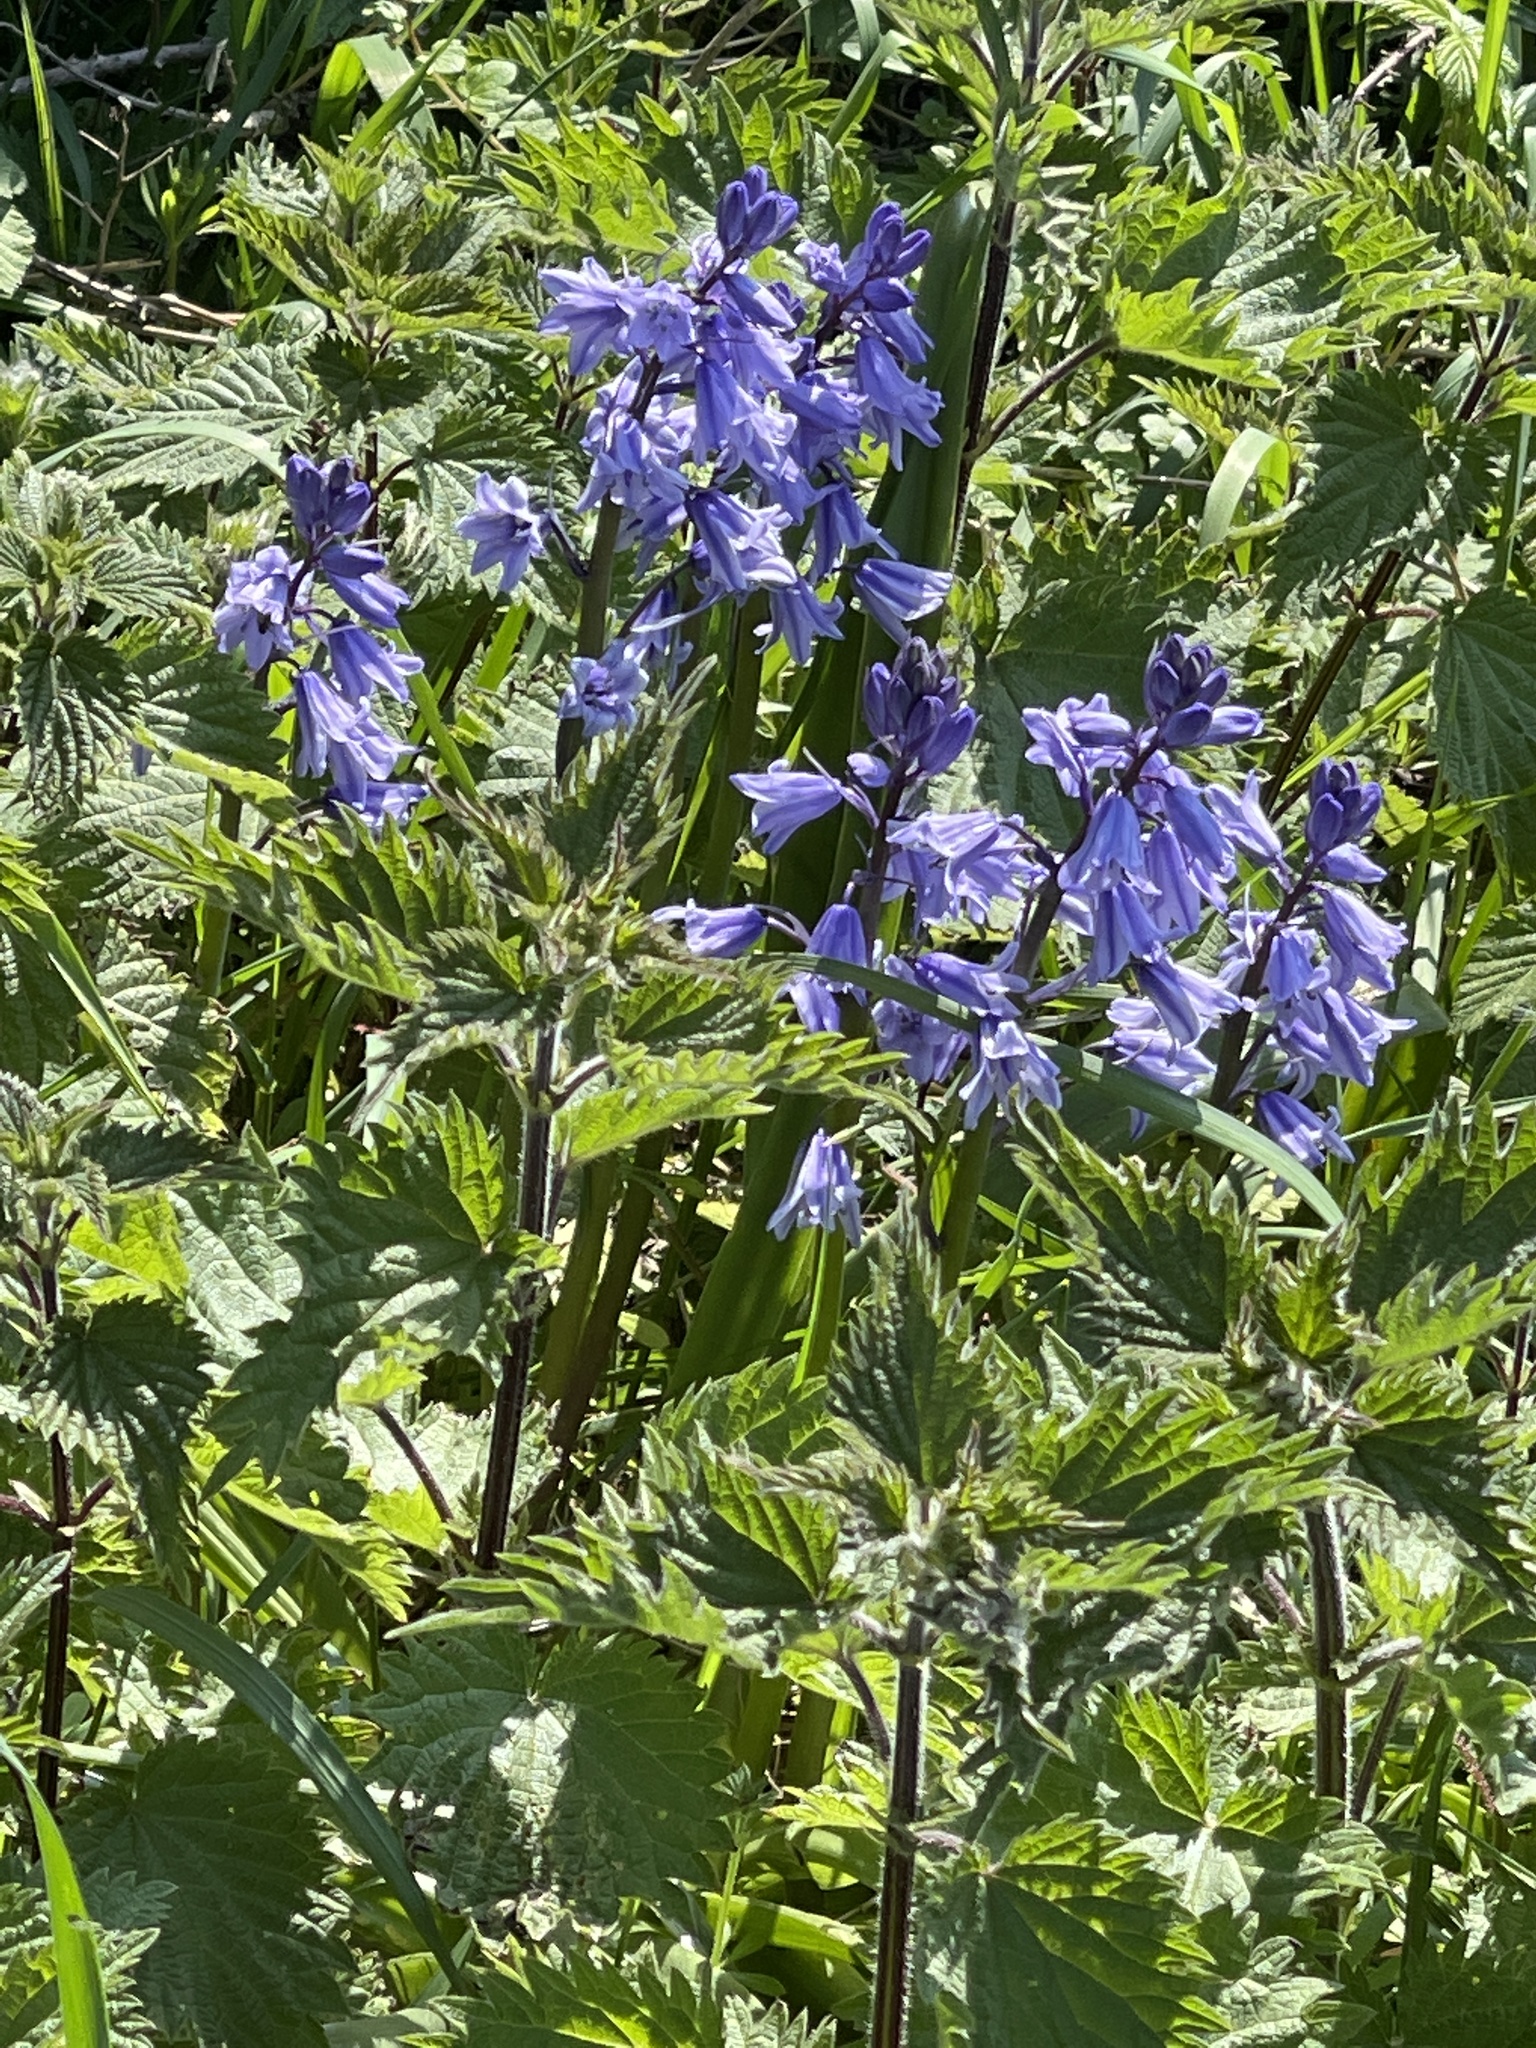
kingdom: Plantae
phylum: Tracheophyta
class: Liliopsida
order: Asparagales
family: Asparagaceae
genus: Hyacinthoides
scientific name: Hyacinthoides massartiana
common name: Hyacinthoides
